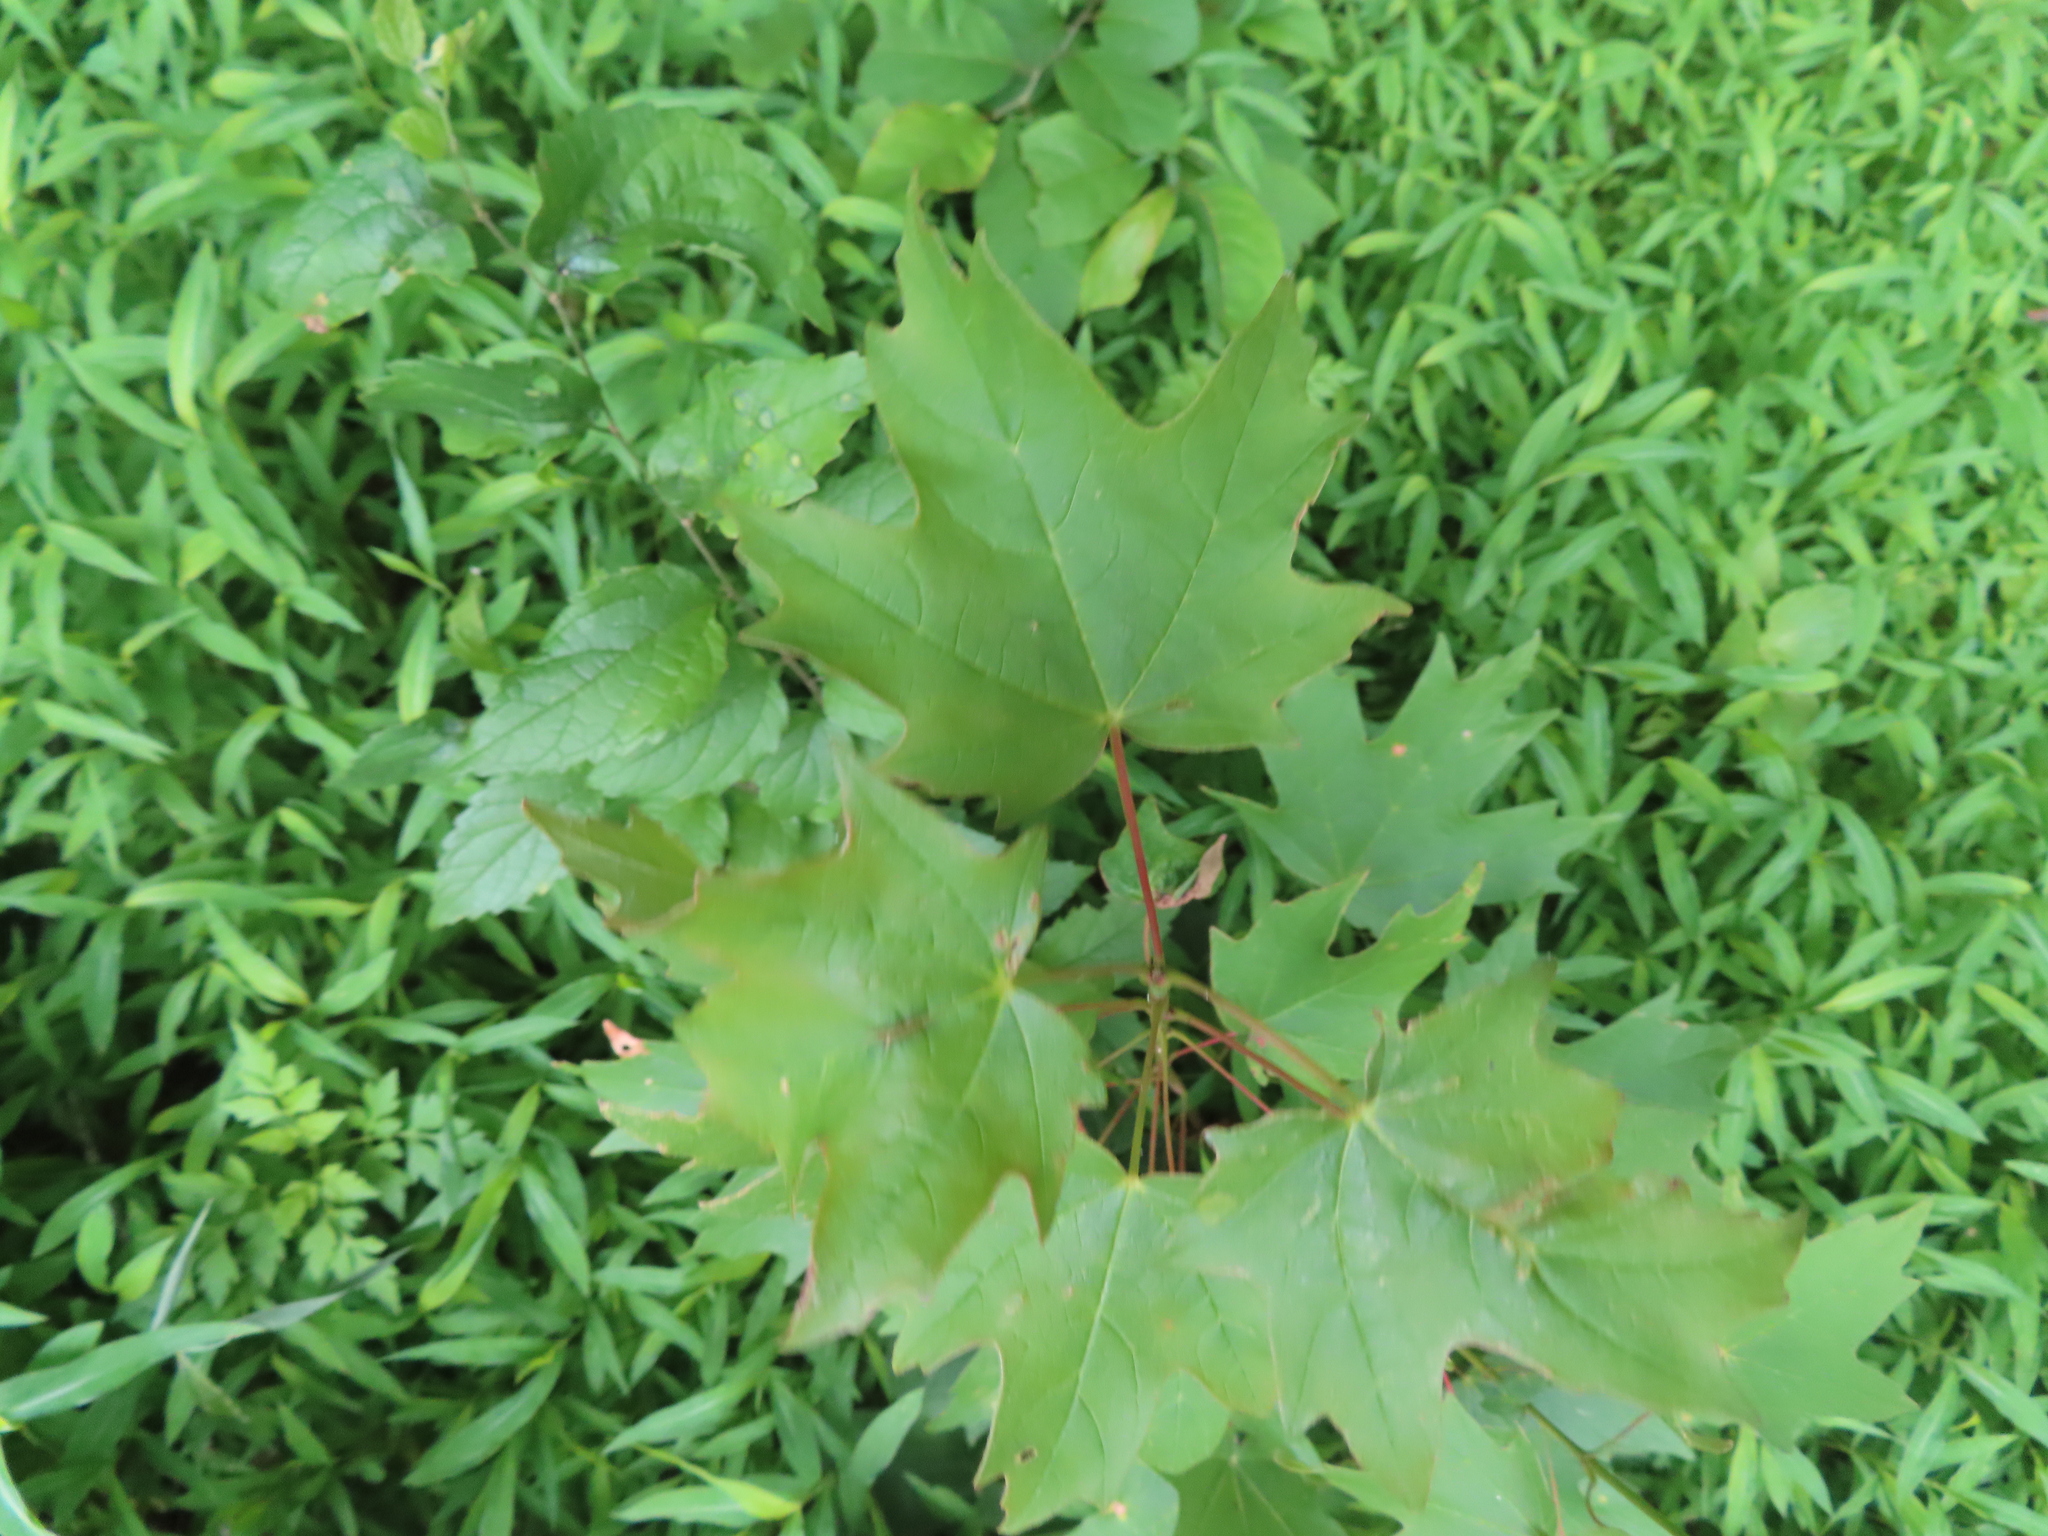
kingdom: Plantae
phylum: Tracheophyta
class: Magnoliopsida
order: Sapindales
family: Sapindaceae
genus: Acer
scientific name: Acer saccharum
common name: Sugar maple
